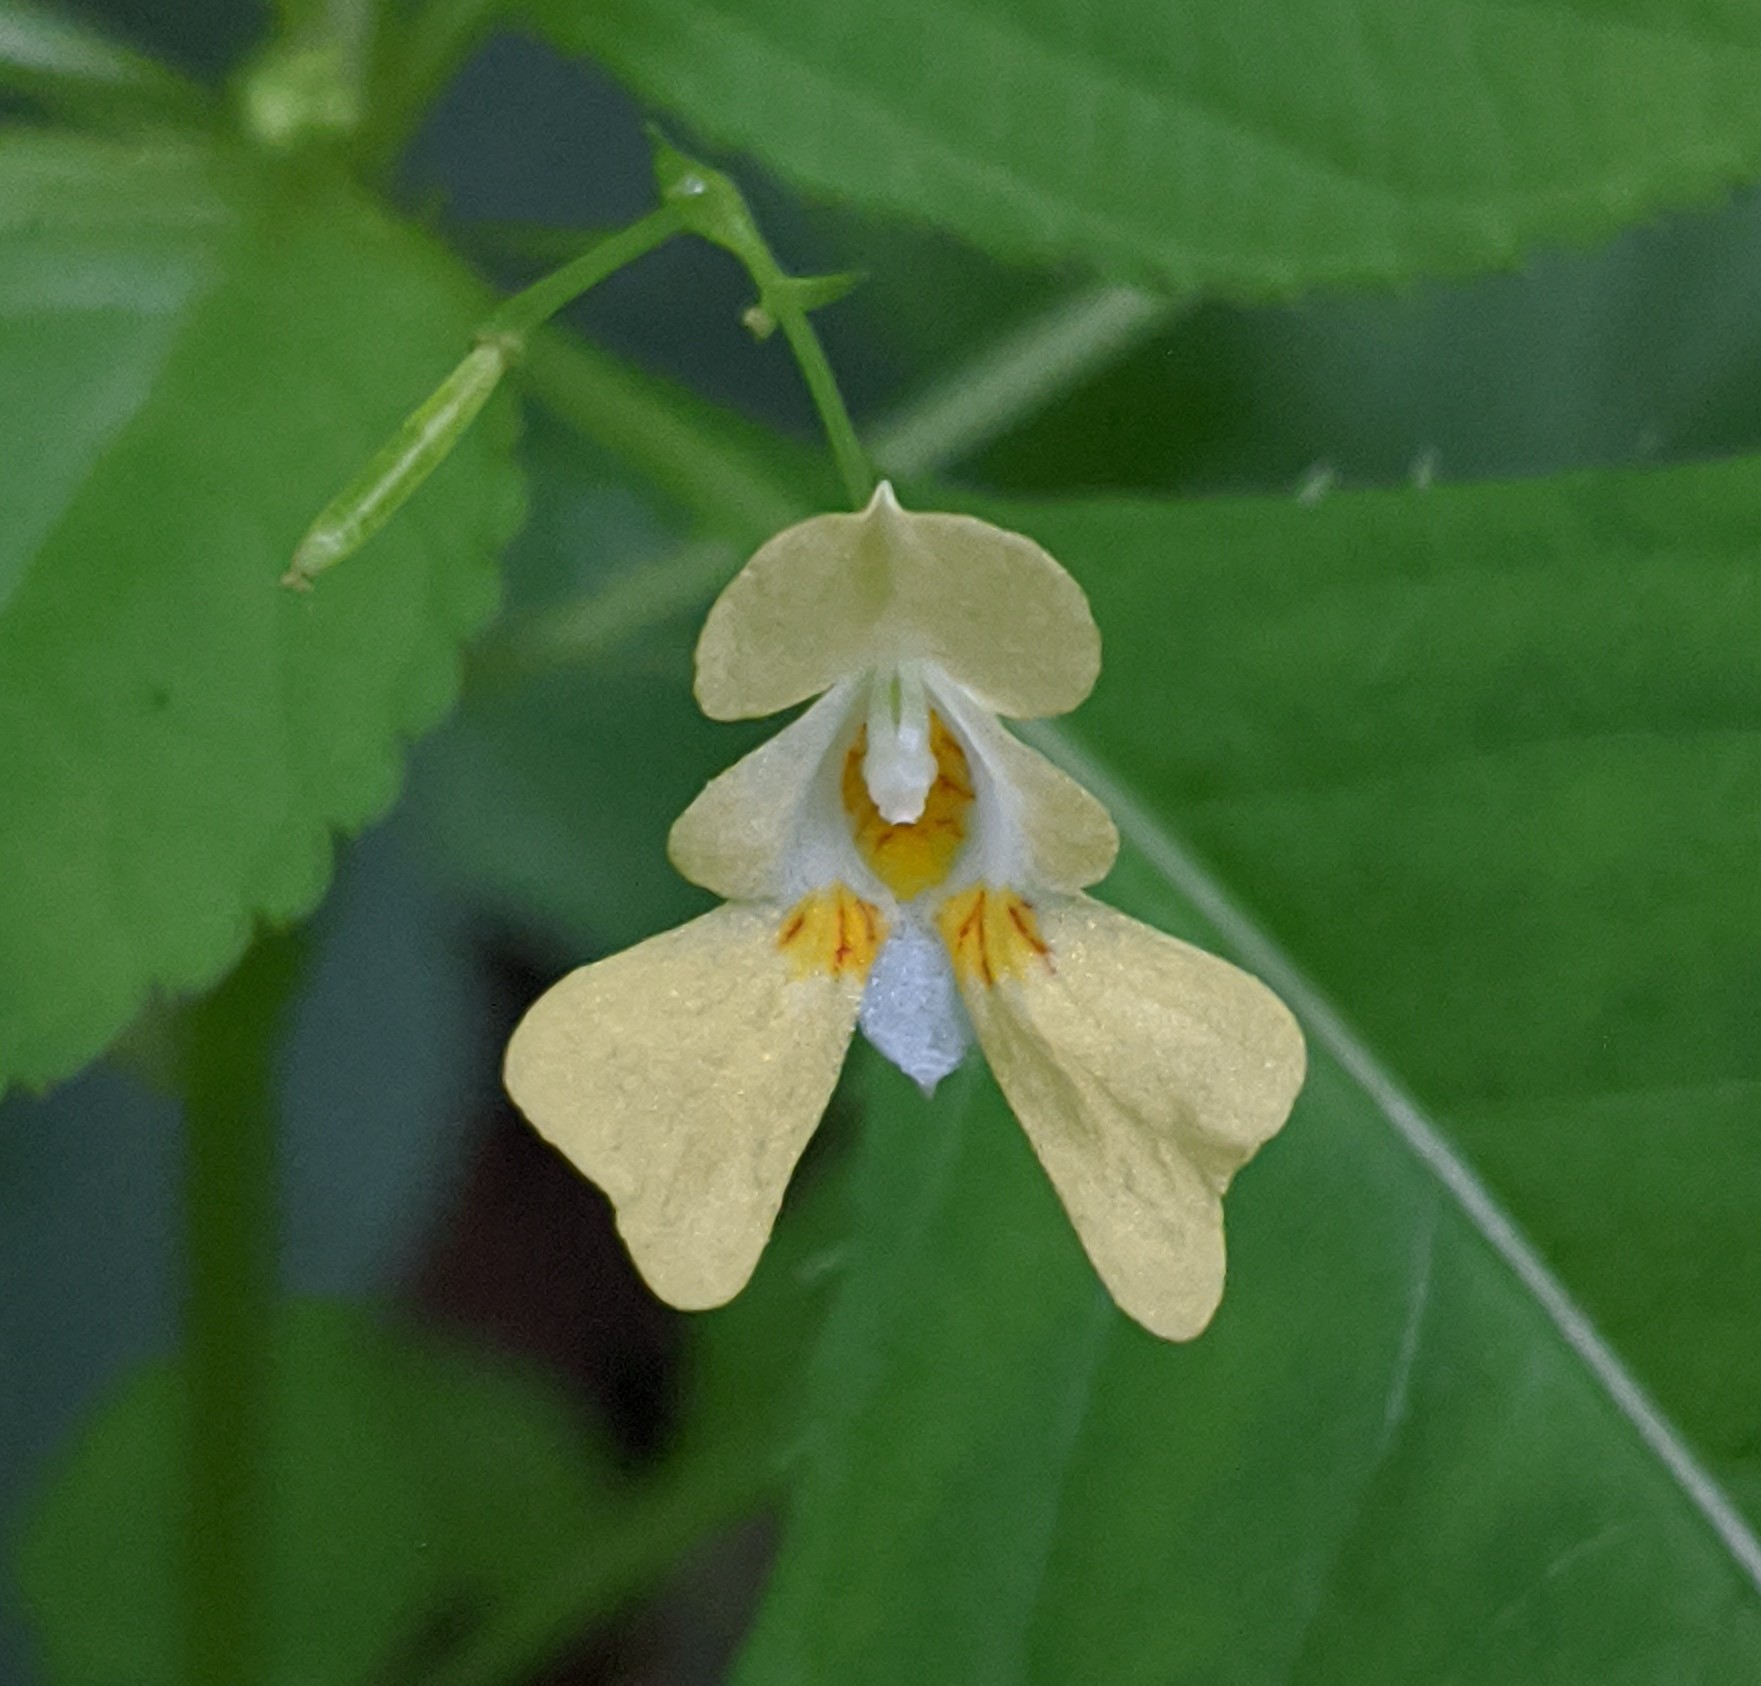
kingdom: Plantae
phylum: Tracheophyta
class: Magnoliopsida
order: Ericales
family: Balsaminaceae
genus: Impatiens
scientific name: Impatiens parviflora
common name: Small balsam
